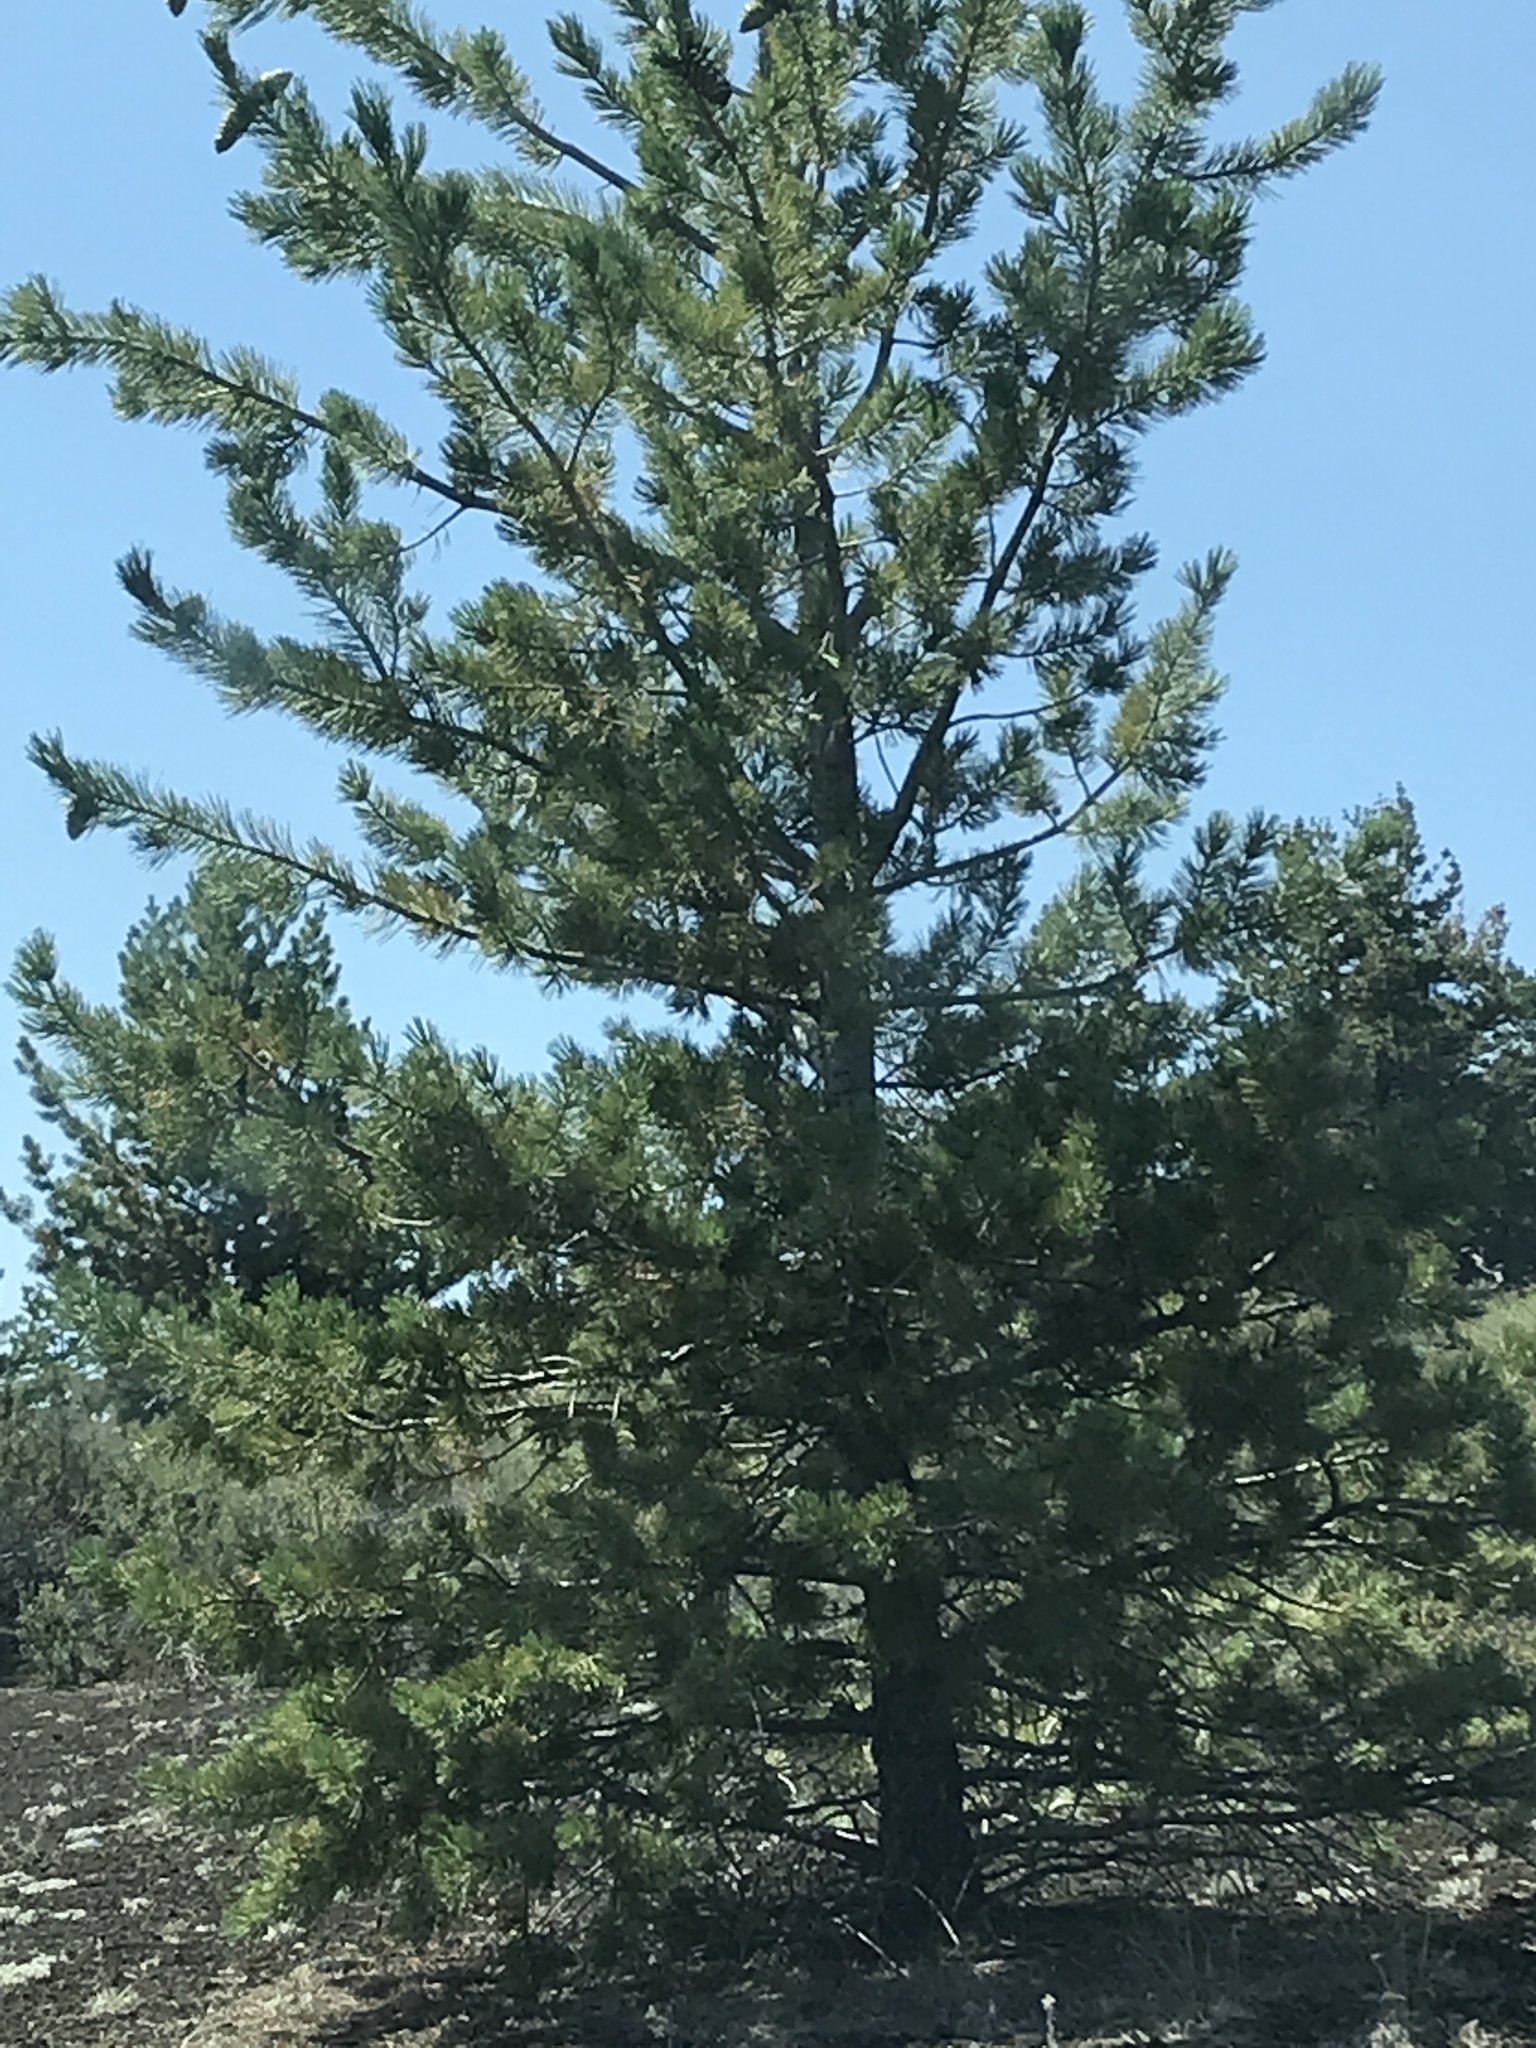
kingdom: Plantae
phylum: Tracheophyta
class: Pinopsida
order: Pinales
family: Pinaceae
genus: Pinus
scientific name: Pinus flexilis
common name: Limber pine
